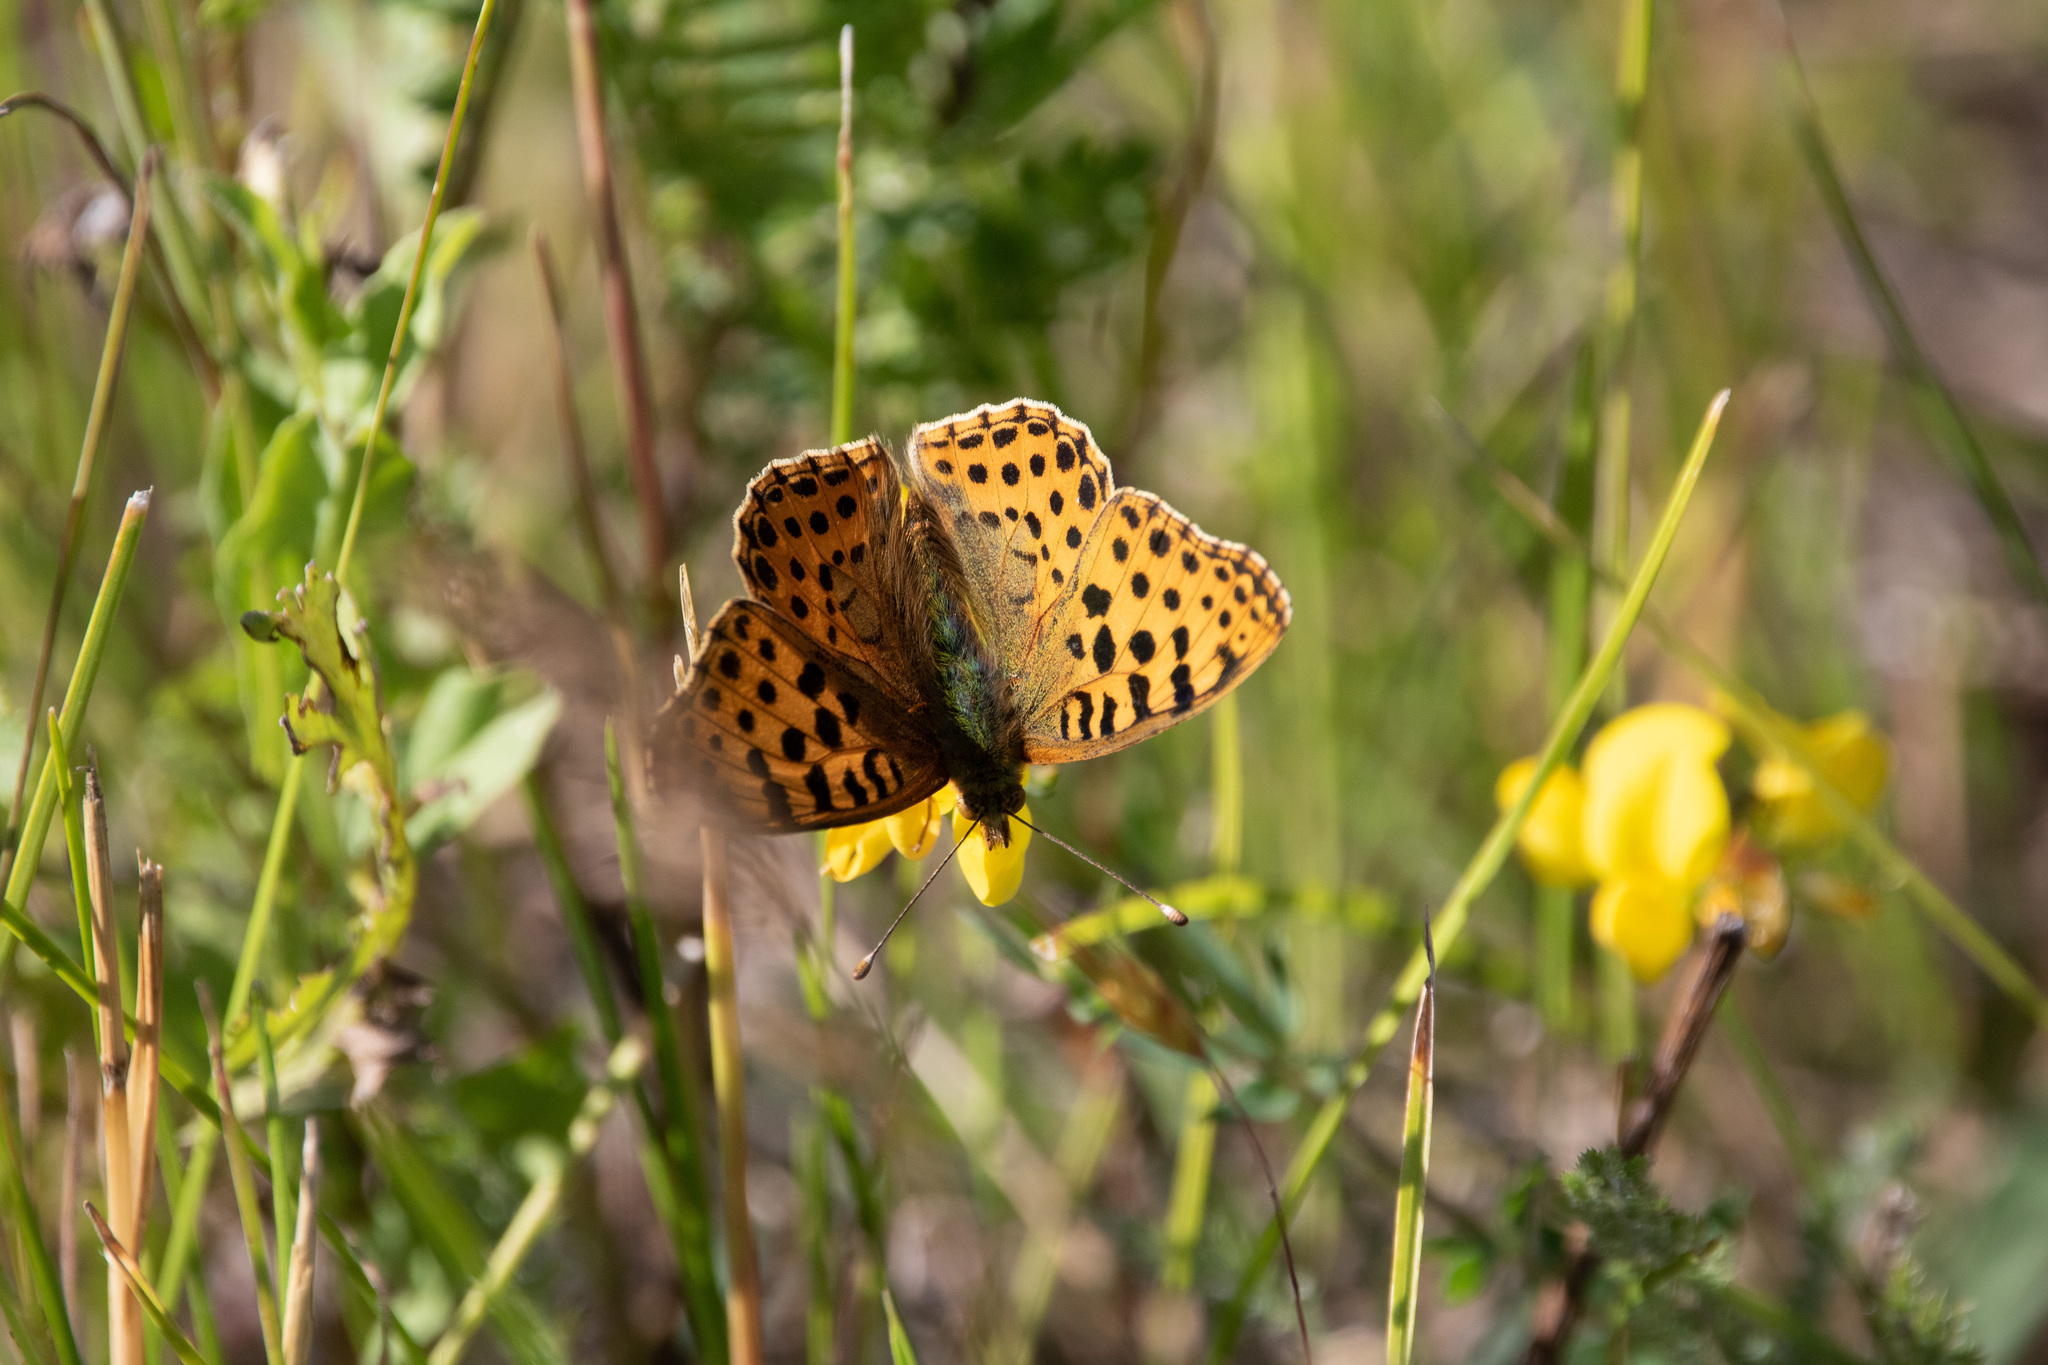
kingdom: Animalia
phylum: Arthropoda
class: Insecta
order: Lepidoptera
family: Nymphalidae
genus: Issoria
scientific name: Issoria lathonia
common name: Queen of spain fritillary
